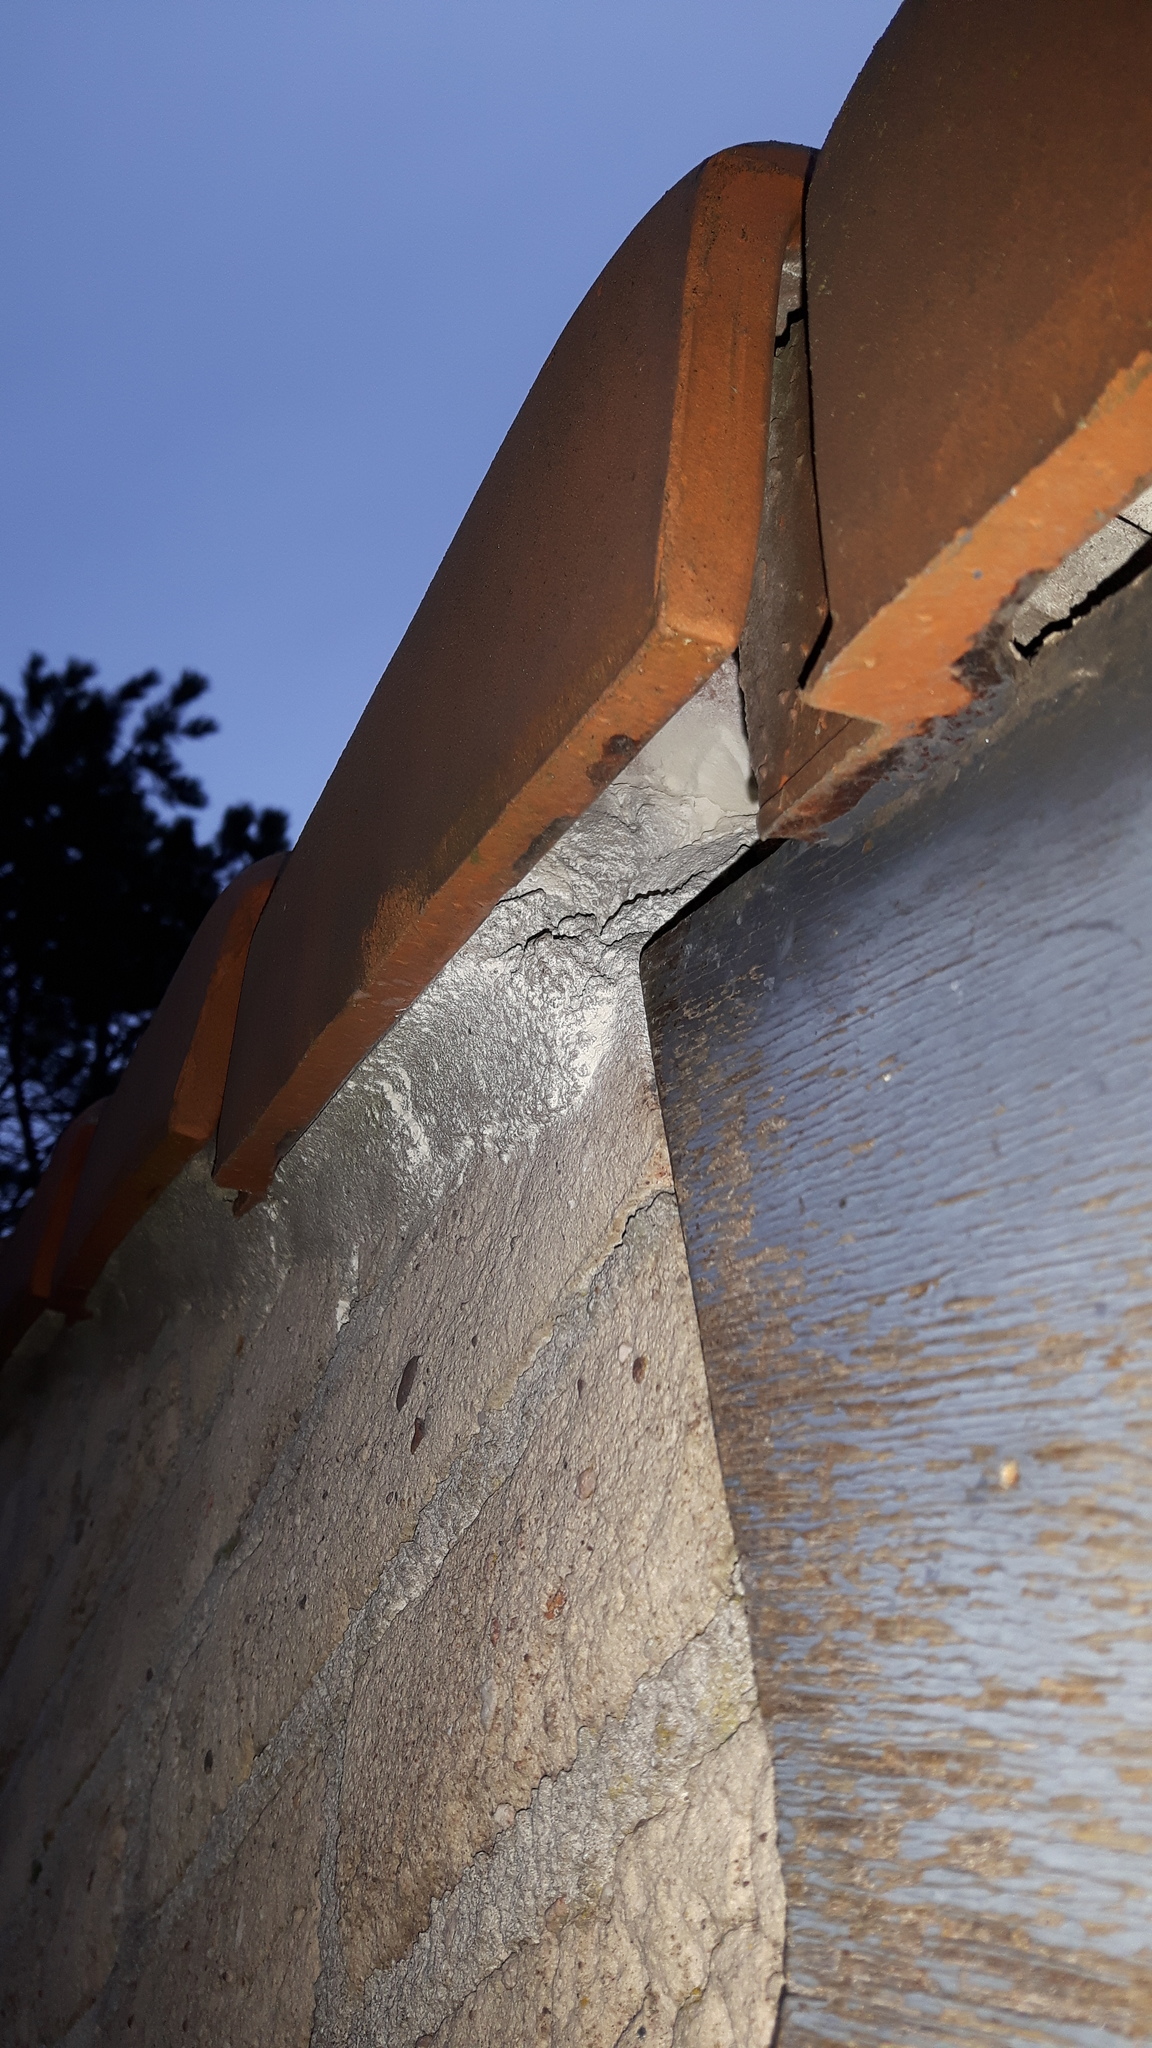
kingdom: Animalia
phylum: Arthropoda
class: Insecta
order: Hymenoptera
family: Vespidae
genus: Vespa
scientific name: Vespa crabro
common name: Hornet
